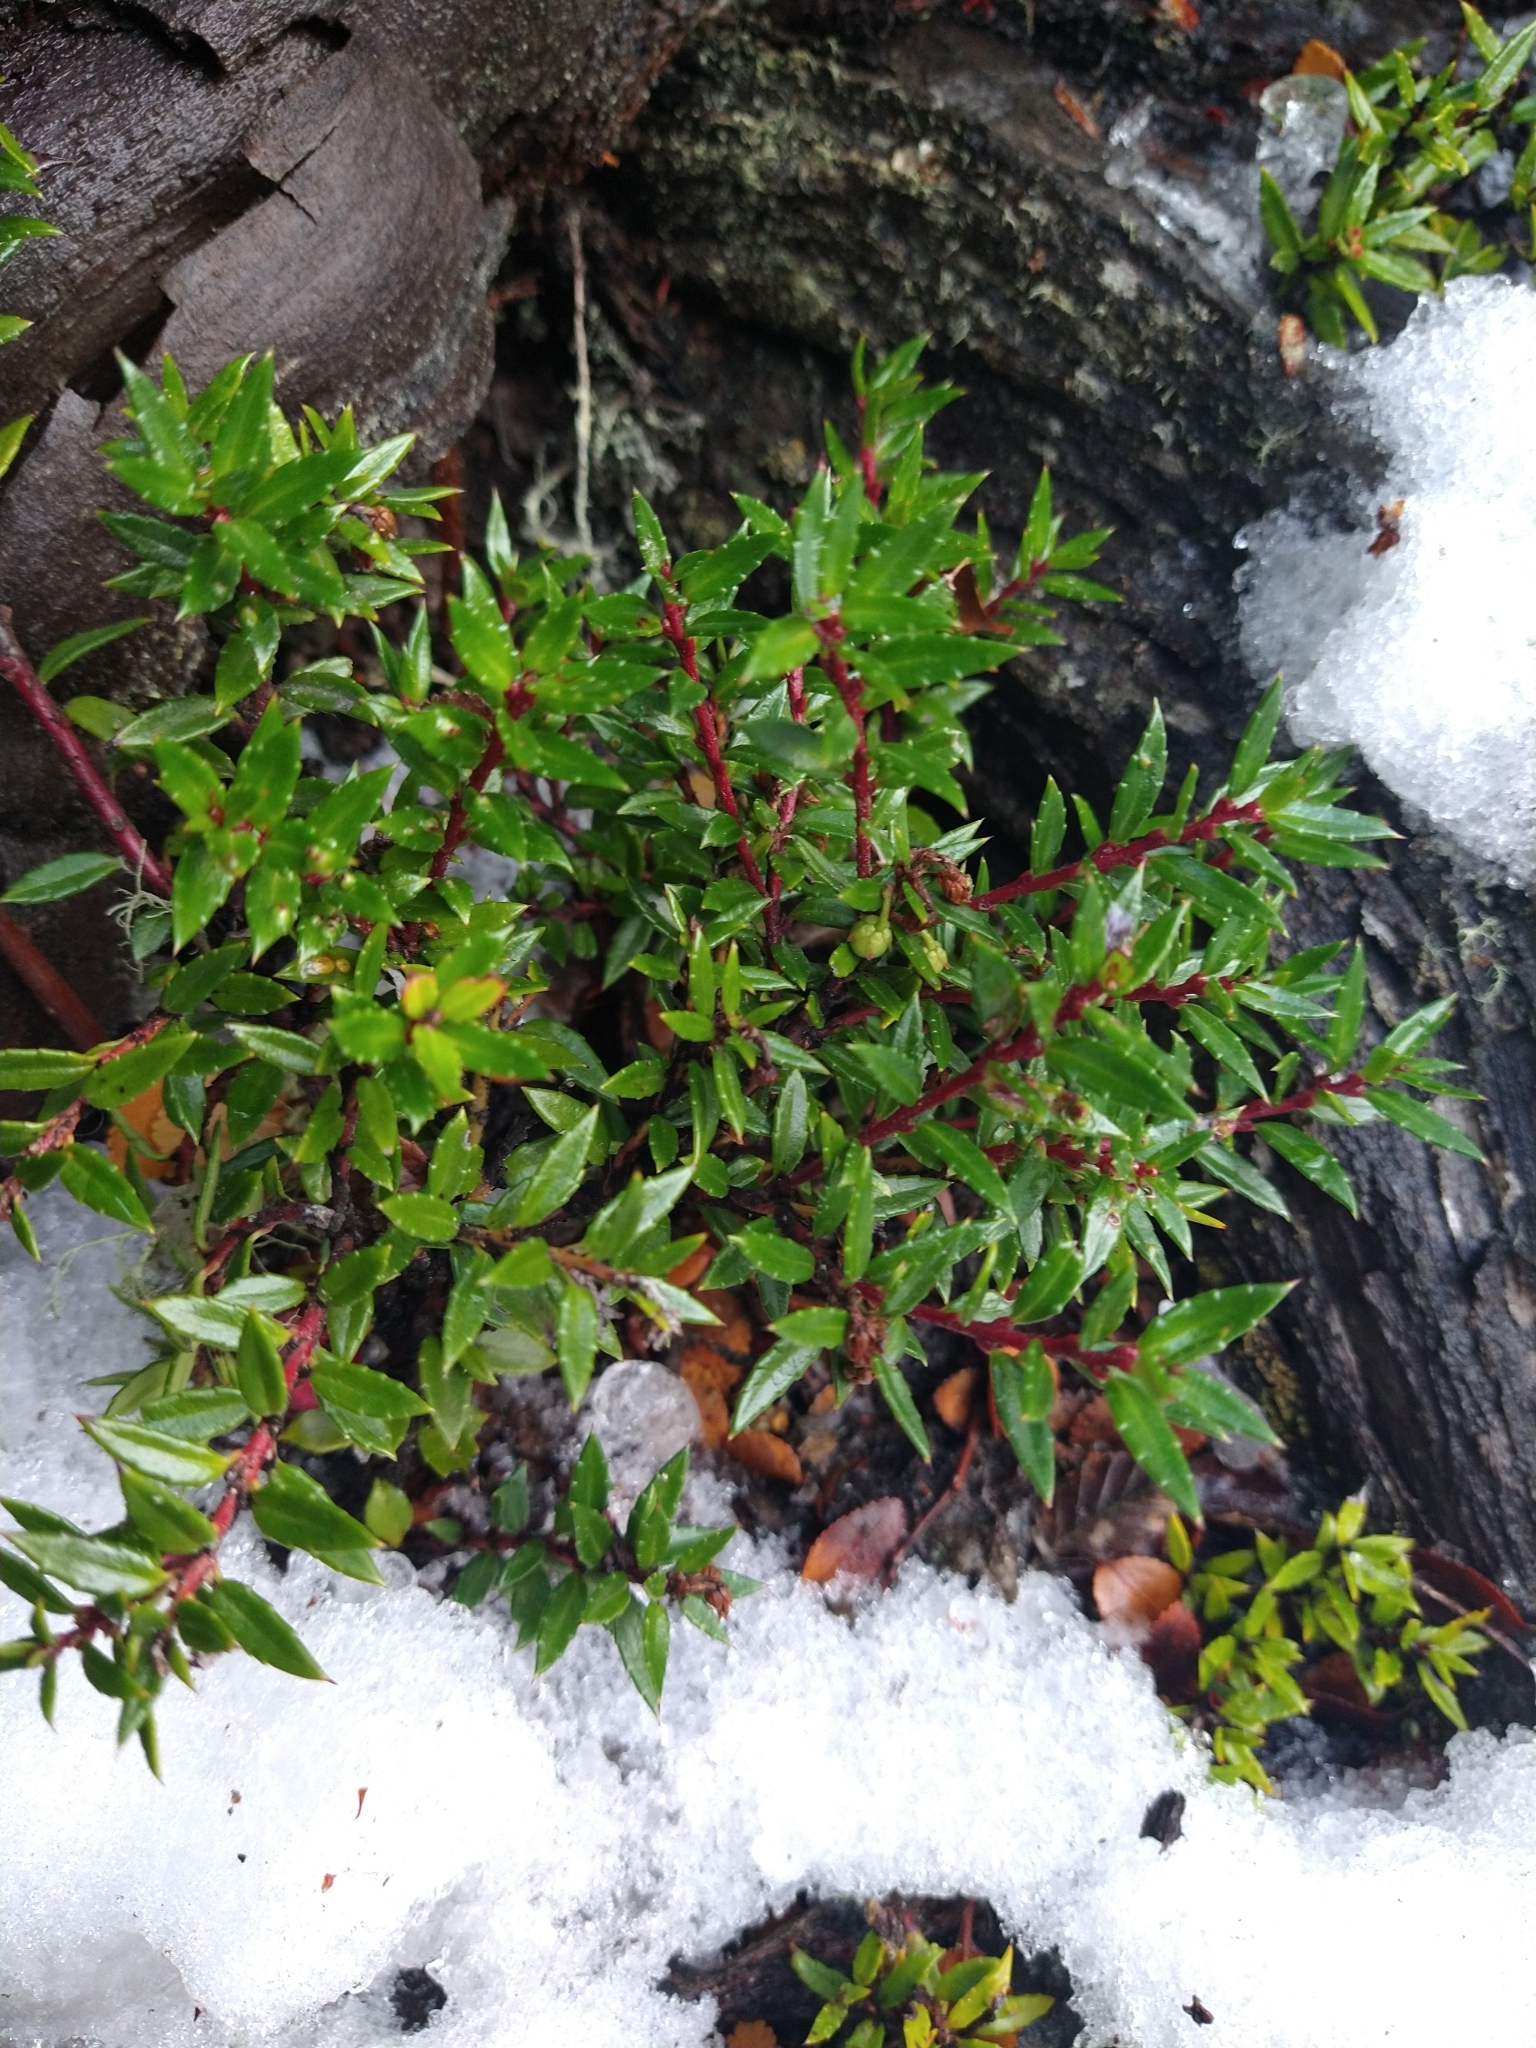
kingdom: Plantae
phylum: Tracheophyta
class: Magnoliopsida
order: Ericales
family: Ericaceae
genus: Gaultheria
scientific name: Gaultheria mucronata
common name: Prickly heath
